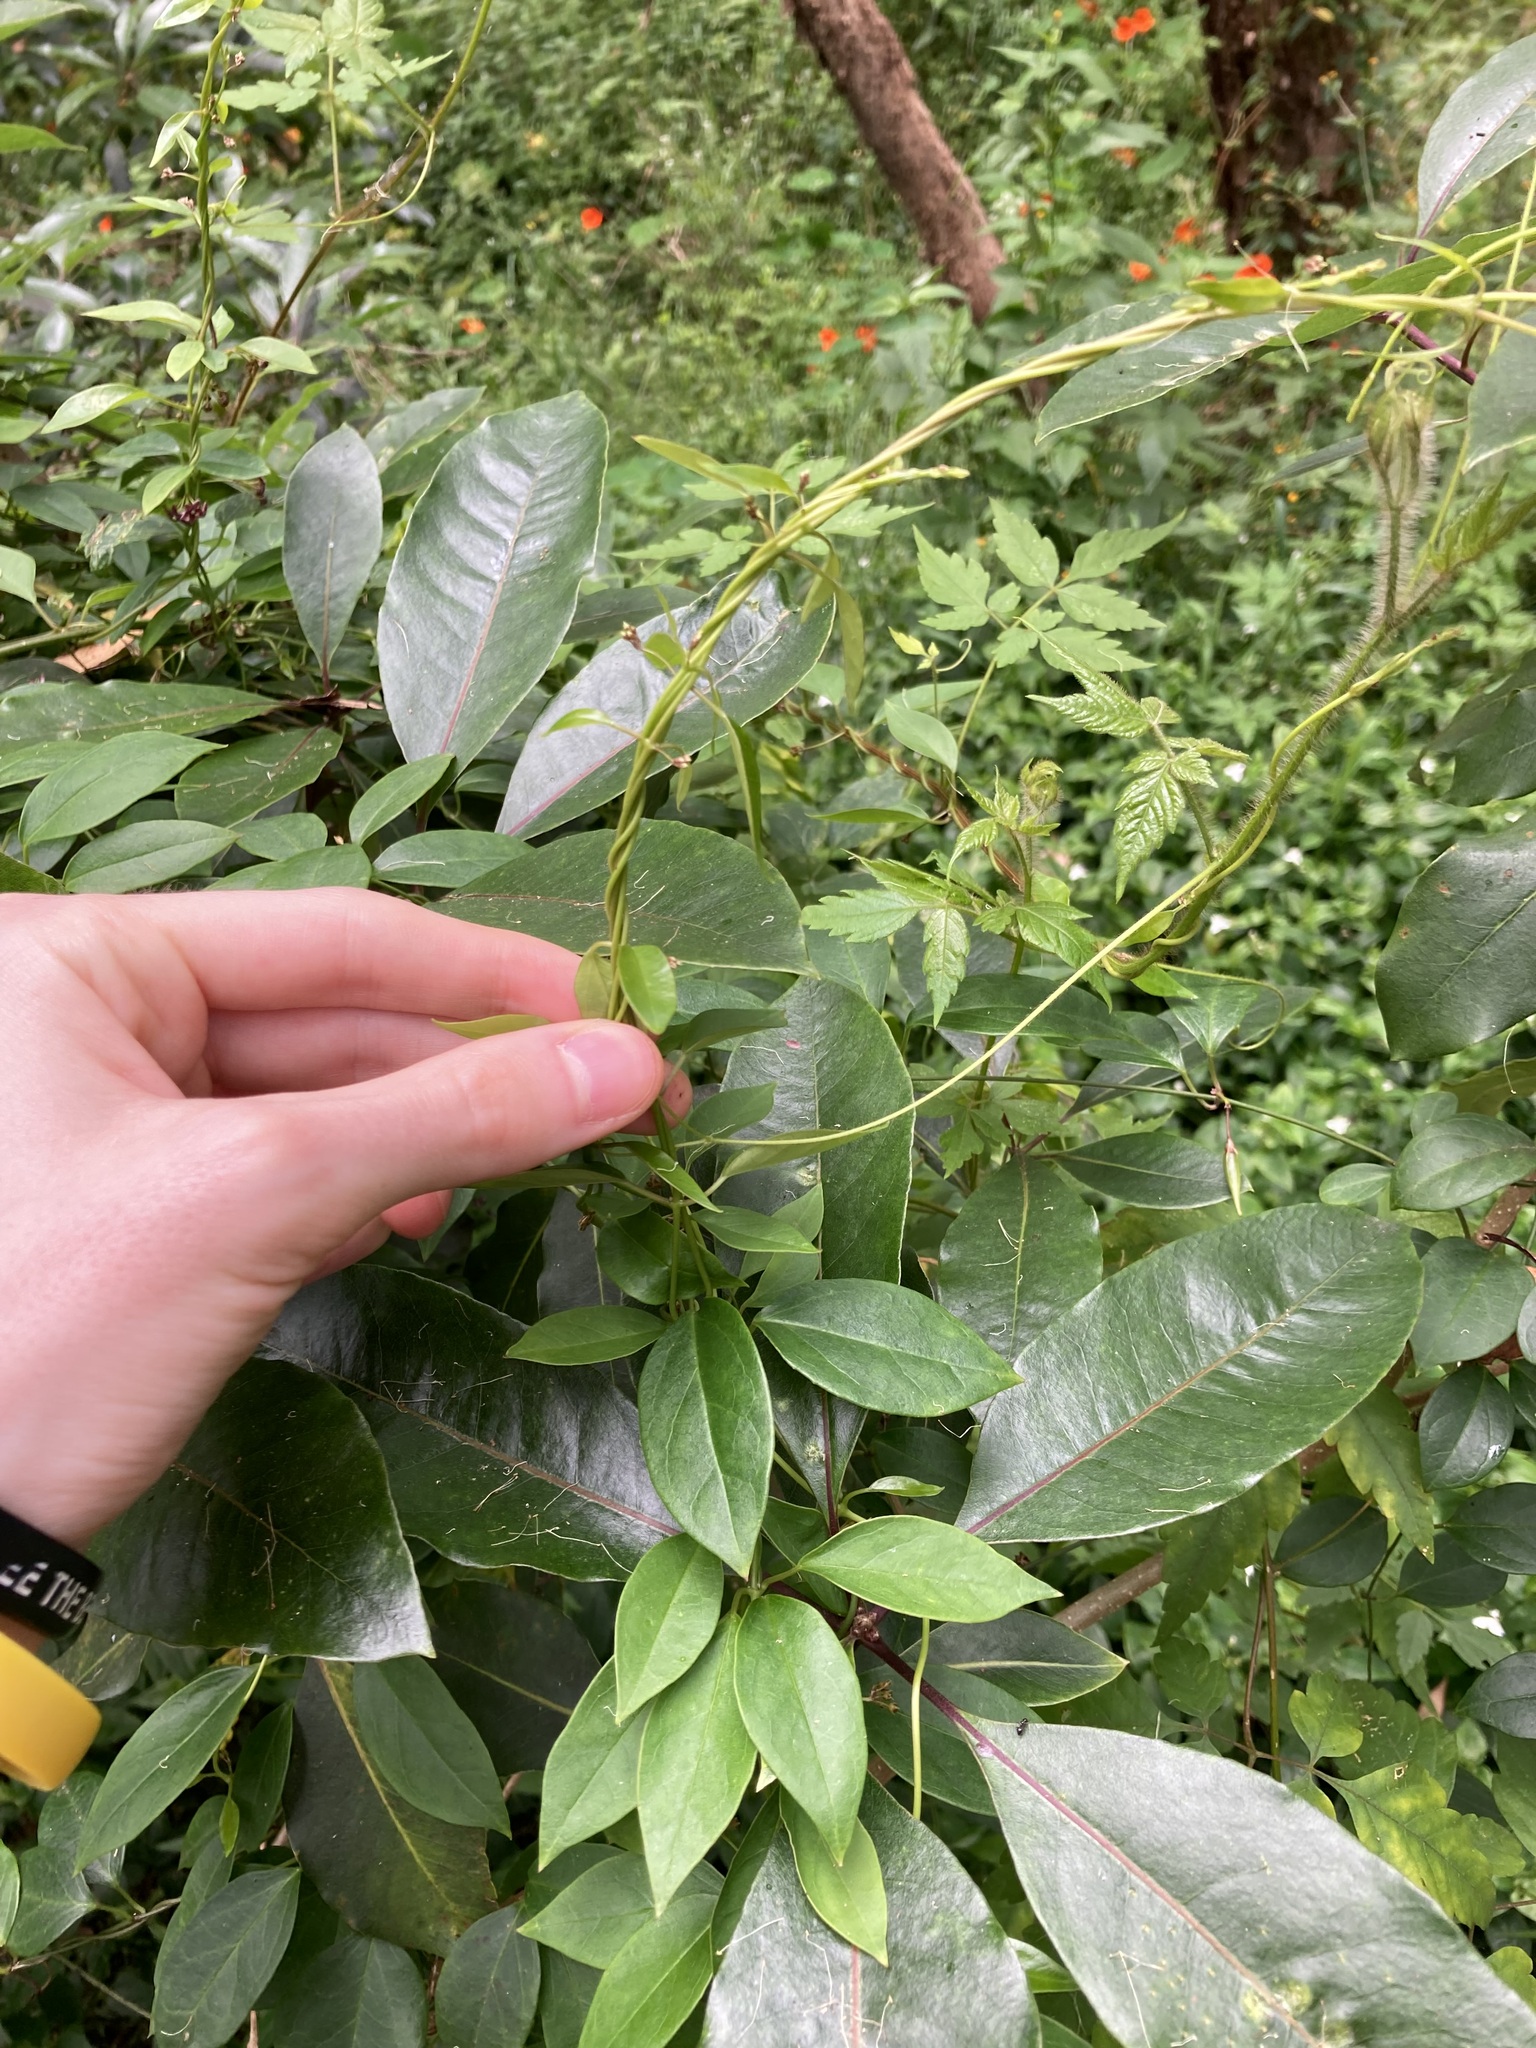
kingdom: Plantae
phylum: Tracheophyta
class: Magnoliopsida
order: Gentianales
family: Apocynaceae
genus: Vincetoxicum
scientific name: Vincetoxicum barbatum
